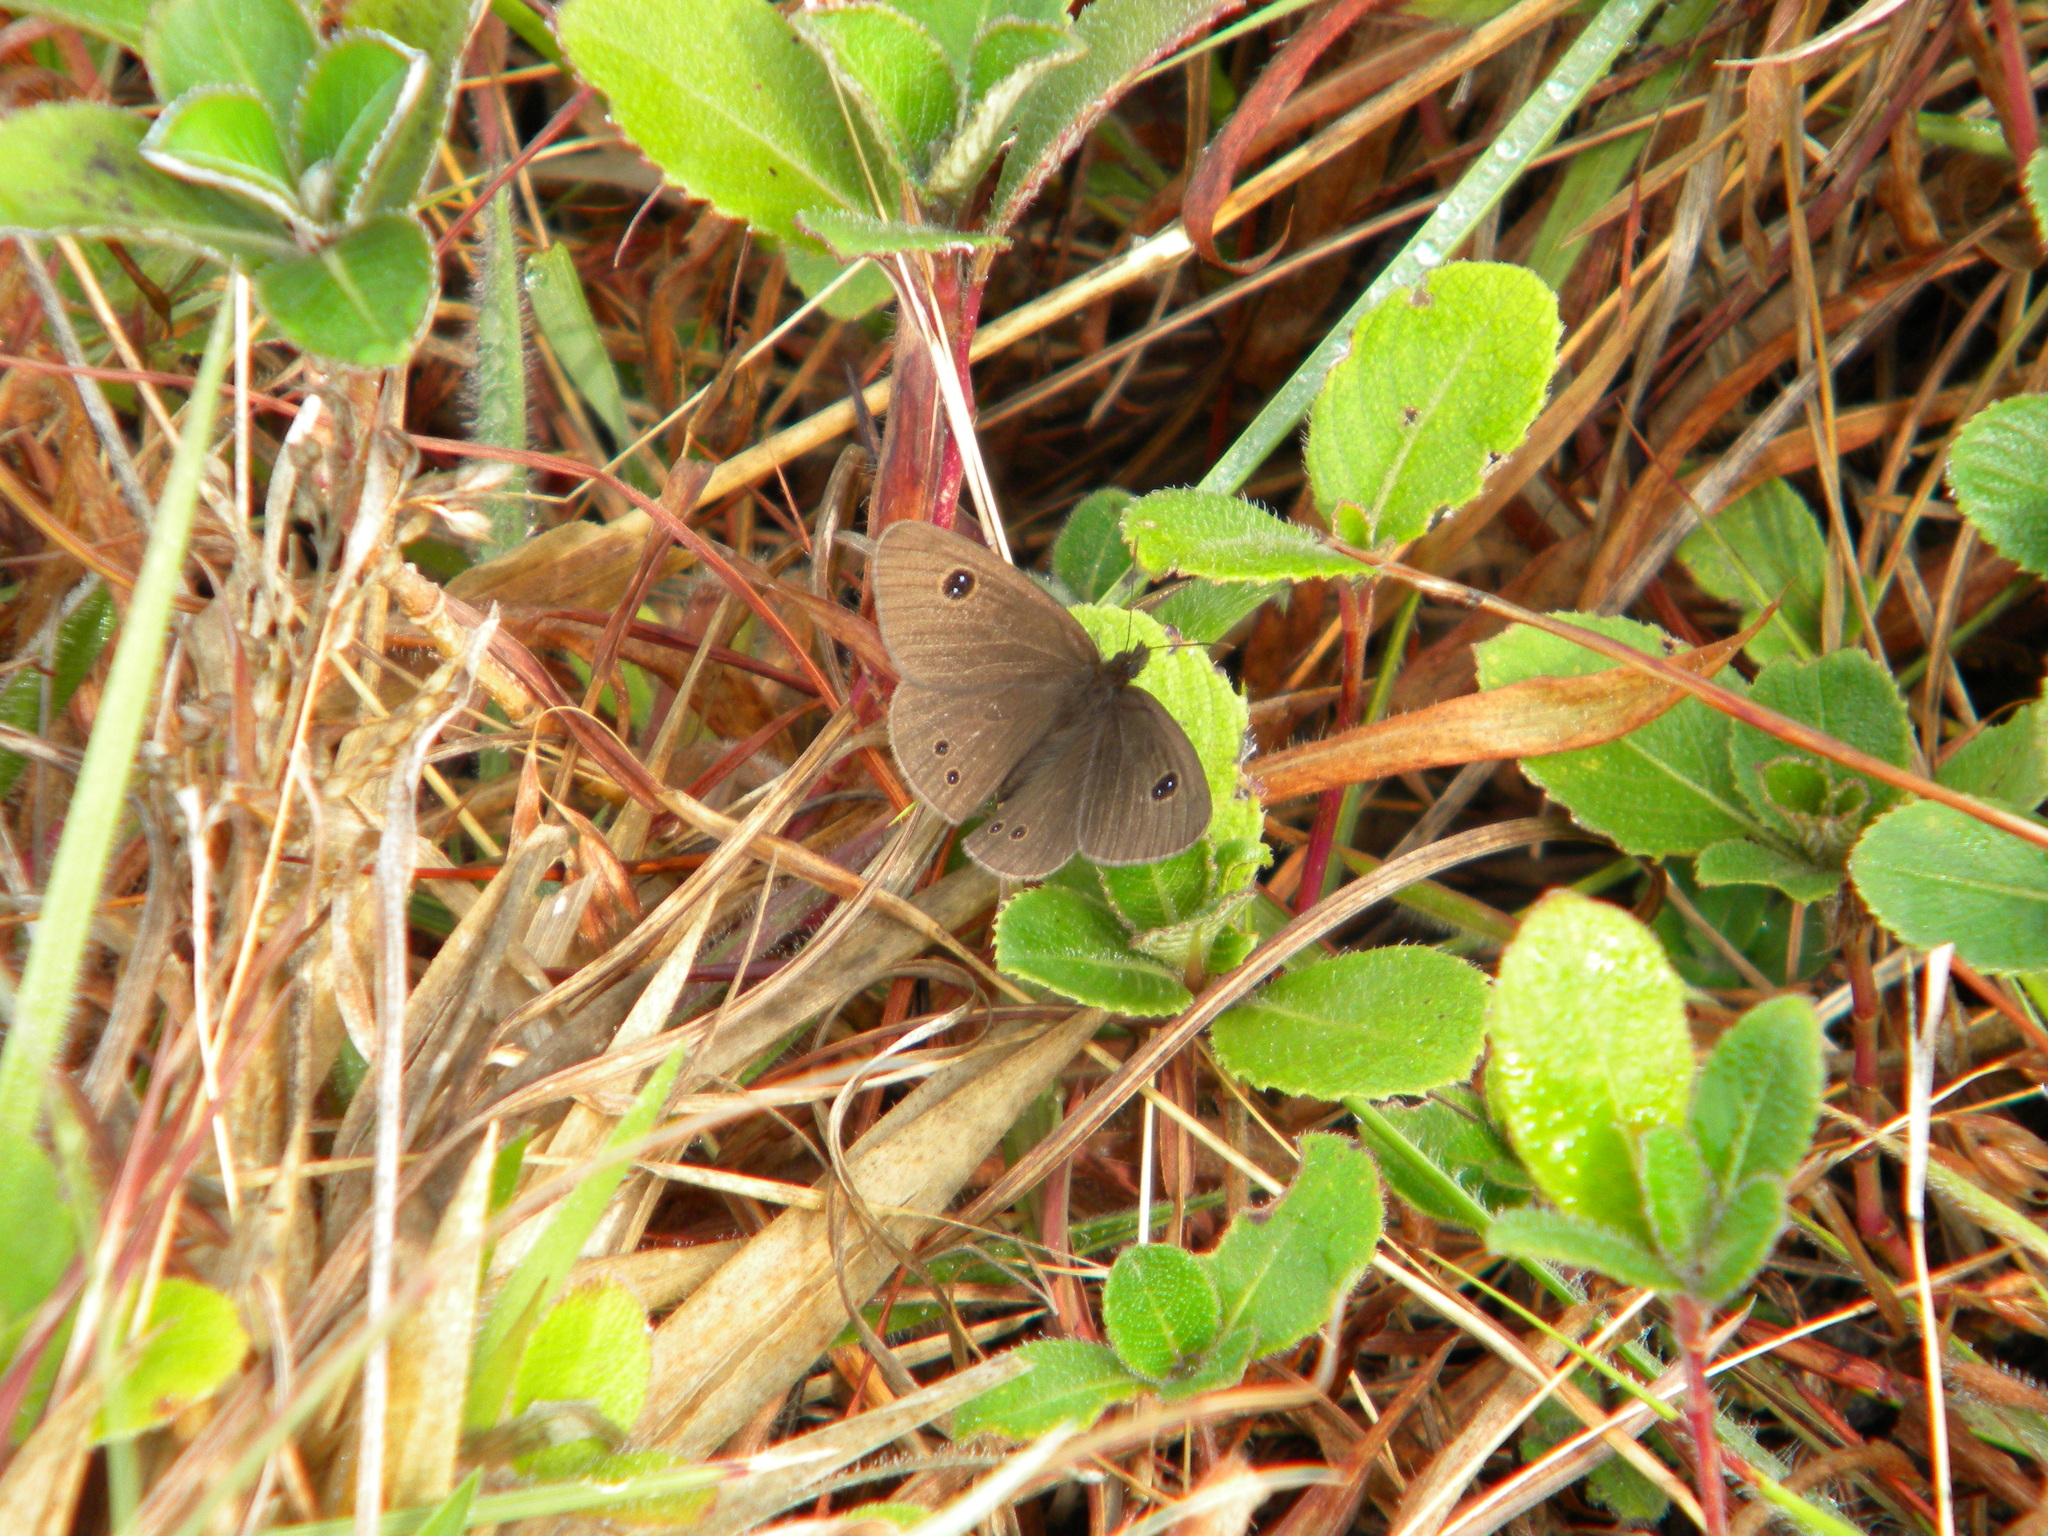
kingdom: Animalia
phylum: Arthropoda
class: Insecta
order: Lepidoptera
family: Nymphalidae
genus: Ypthima
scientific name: Ypthima ypthimoides
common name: Palni four-ring
